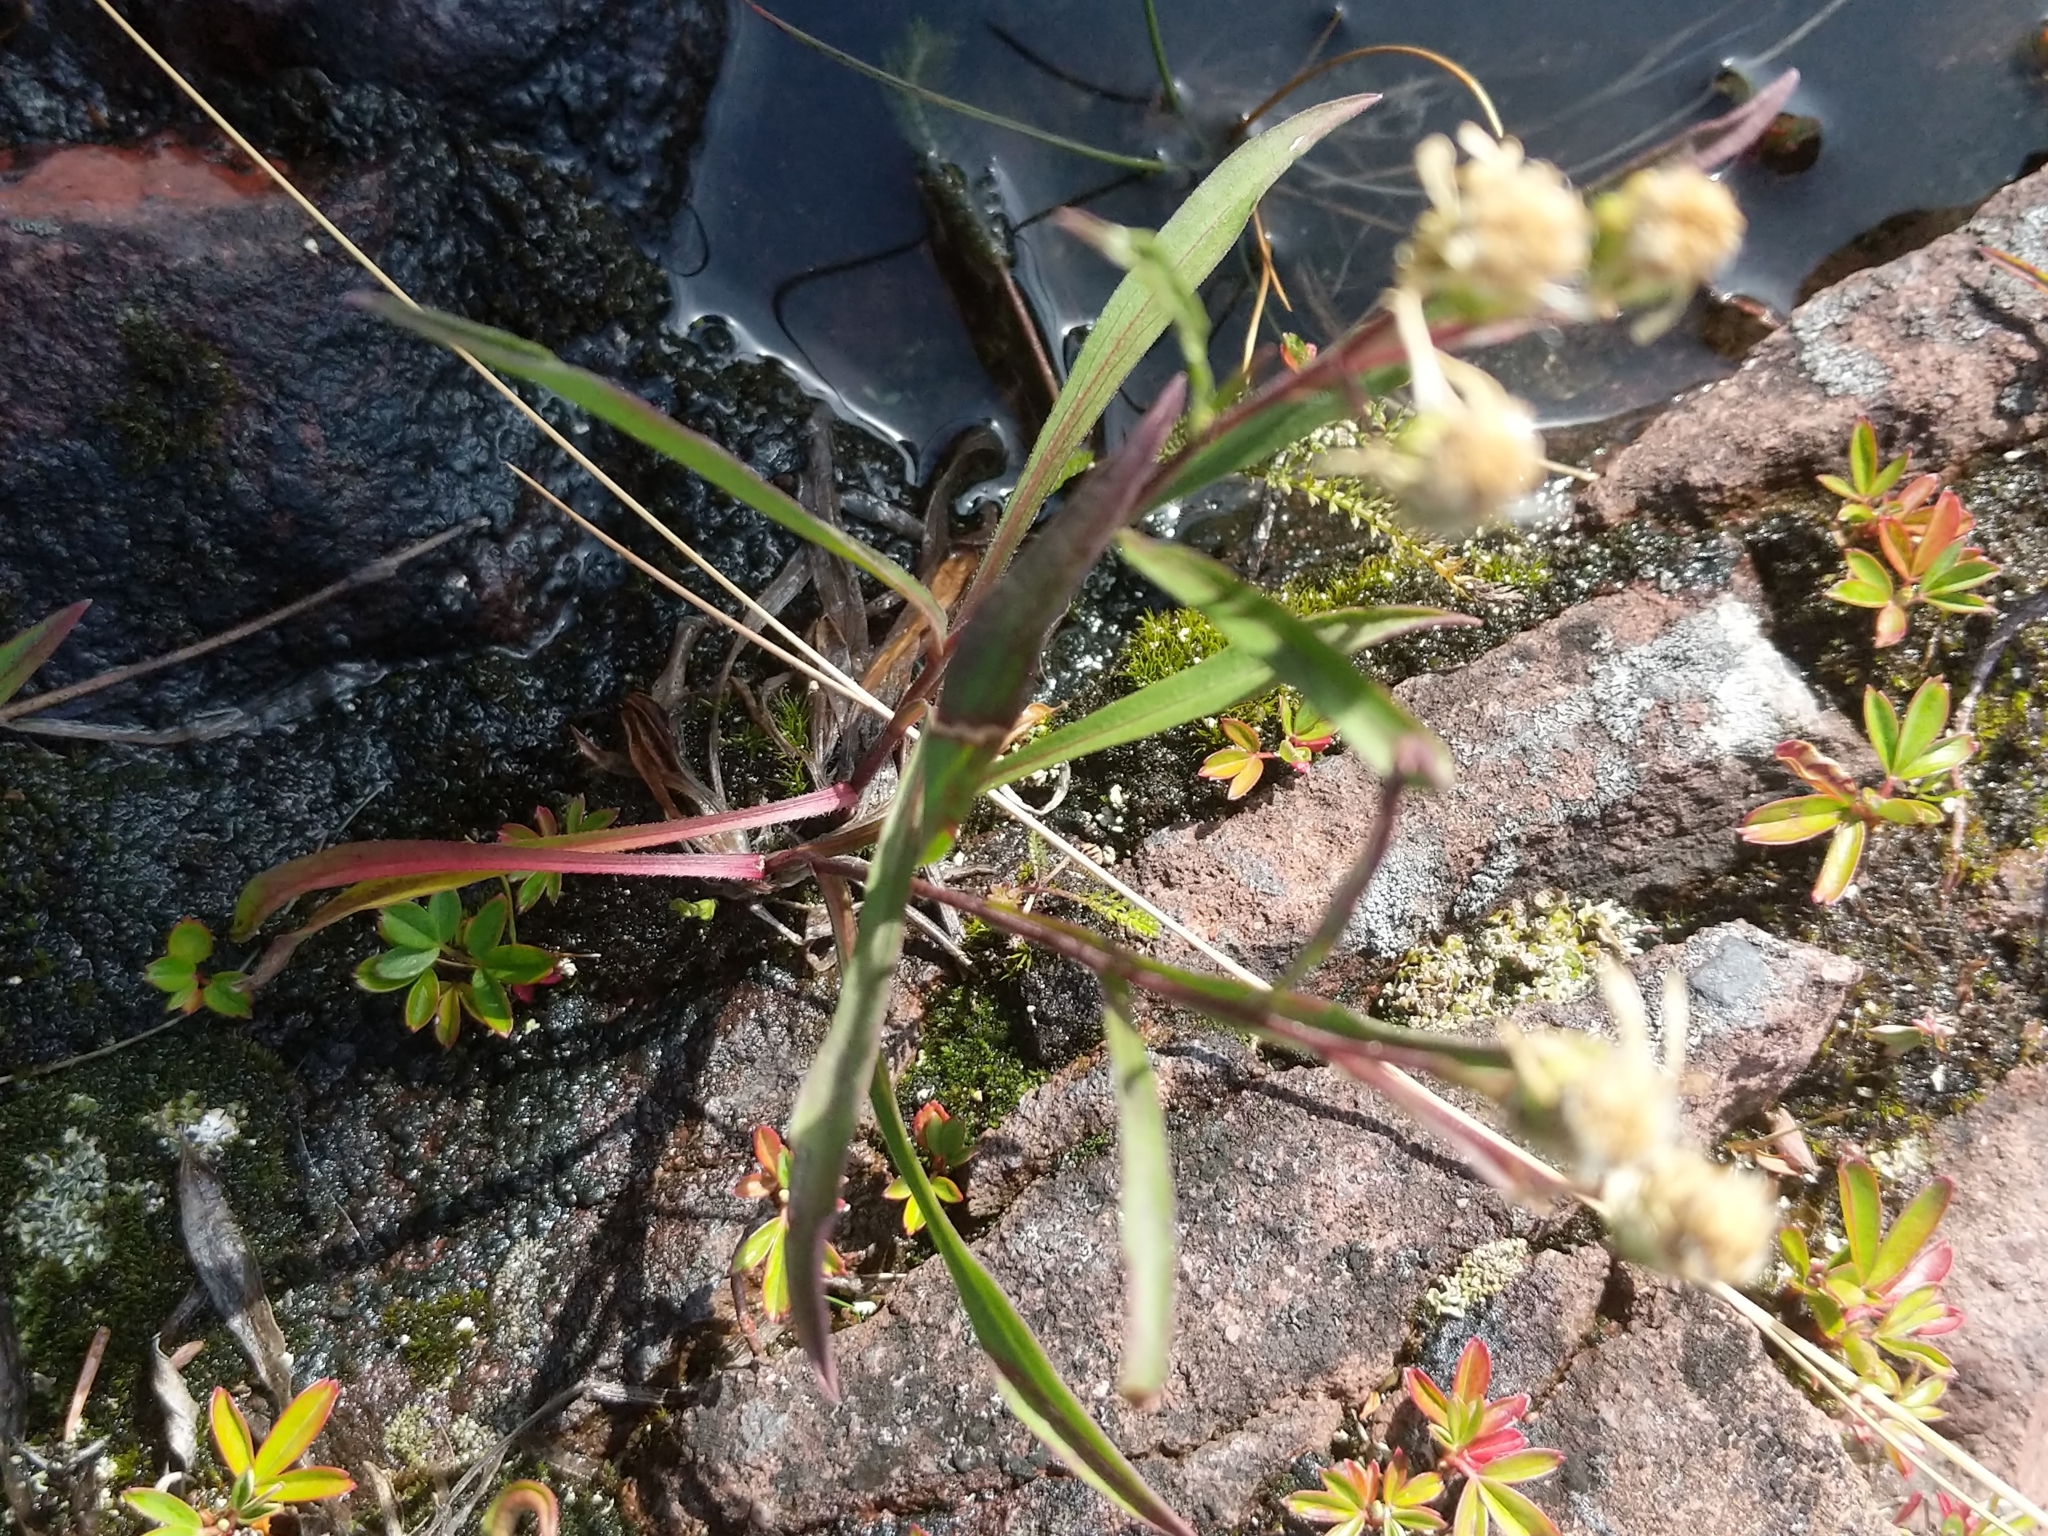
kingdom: Plantae
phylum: Tracheophyta
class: Magnoliopsida
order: Asterales
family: Asteraceae
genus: Solidago
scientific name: Solidago ptarmicoides
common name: White flat-top goldenrod
